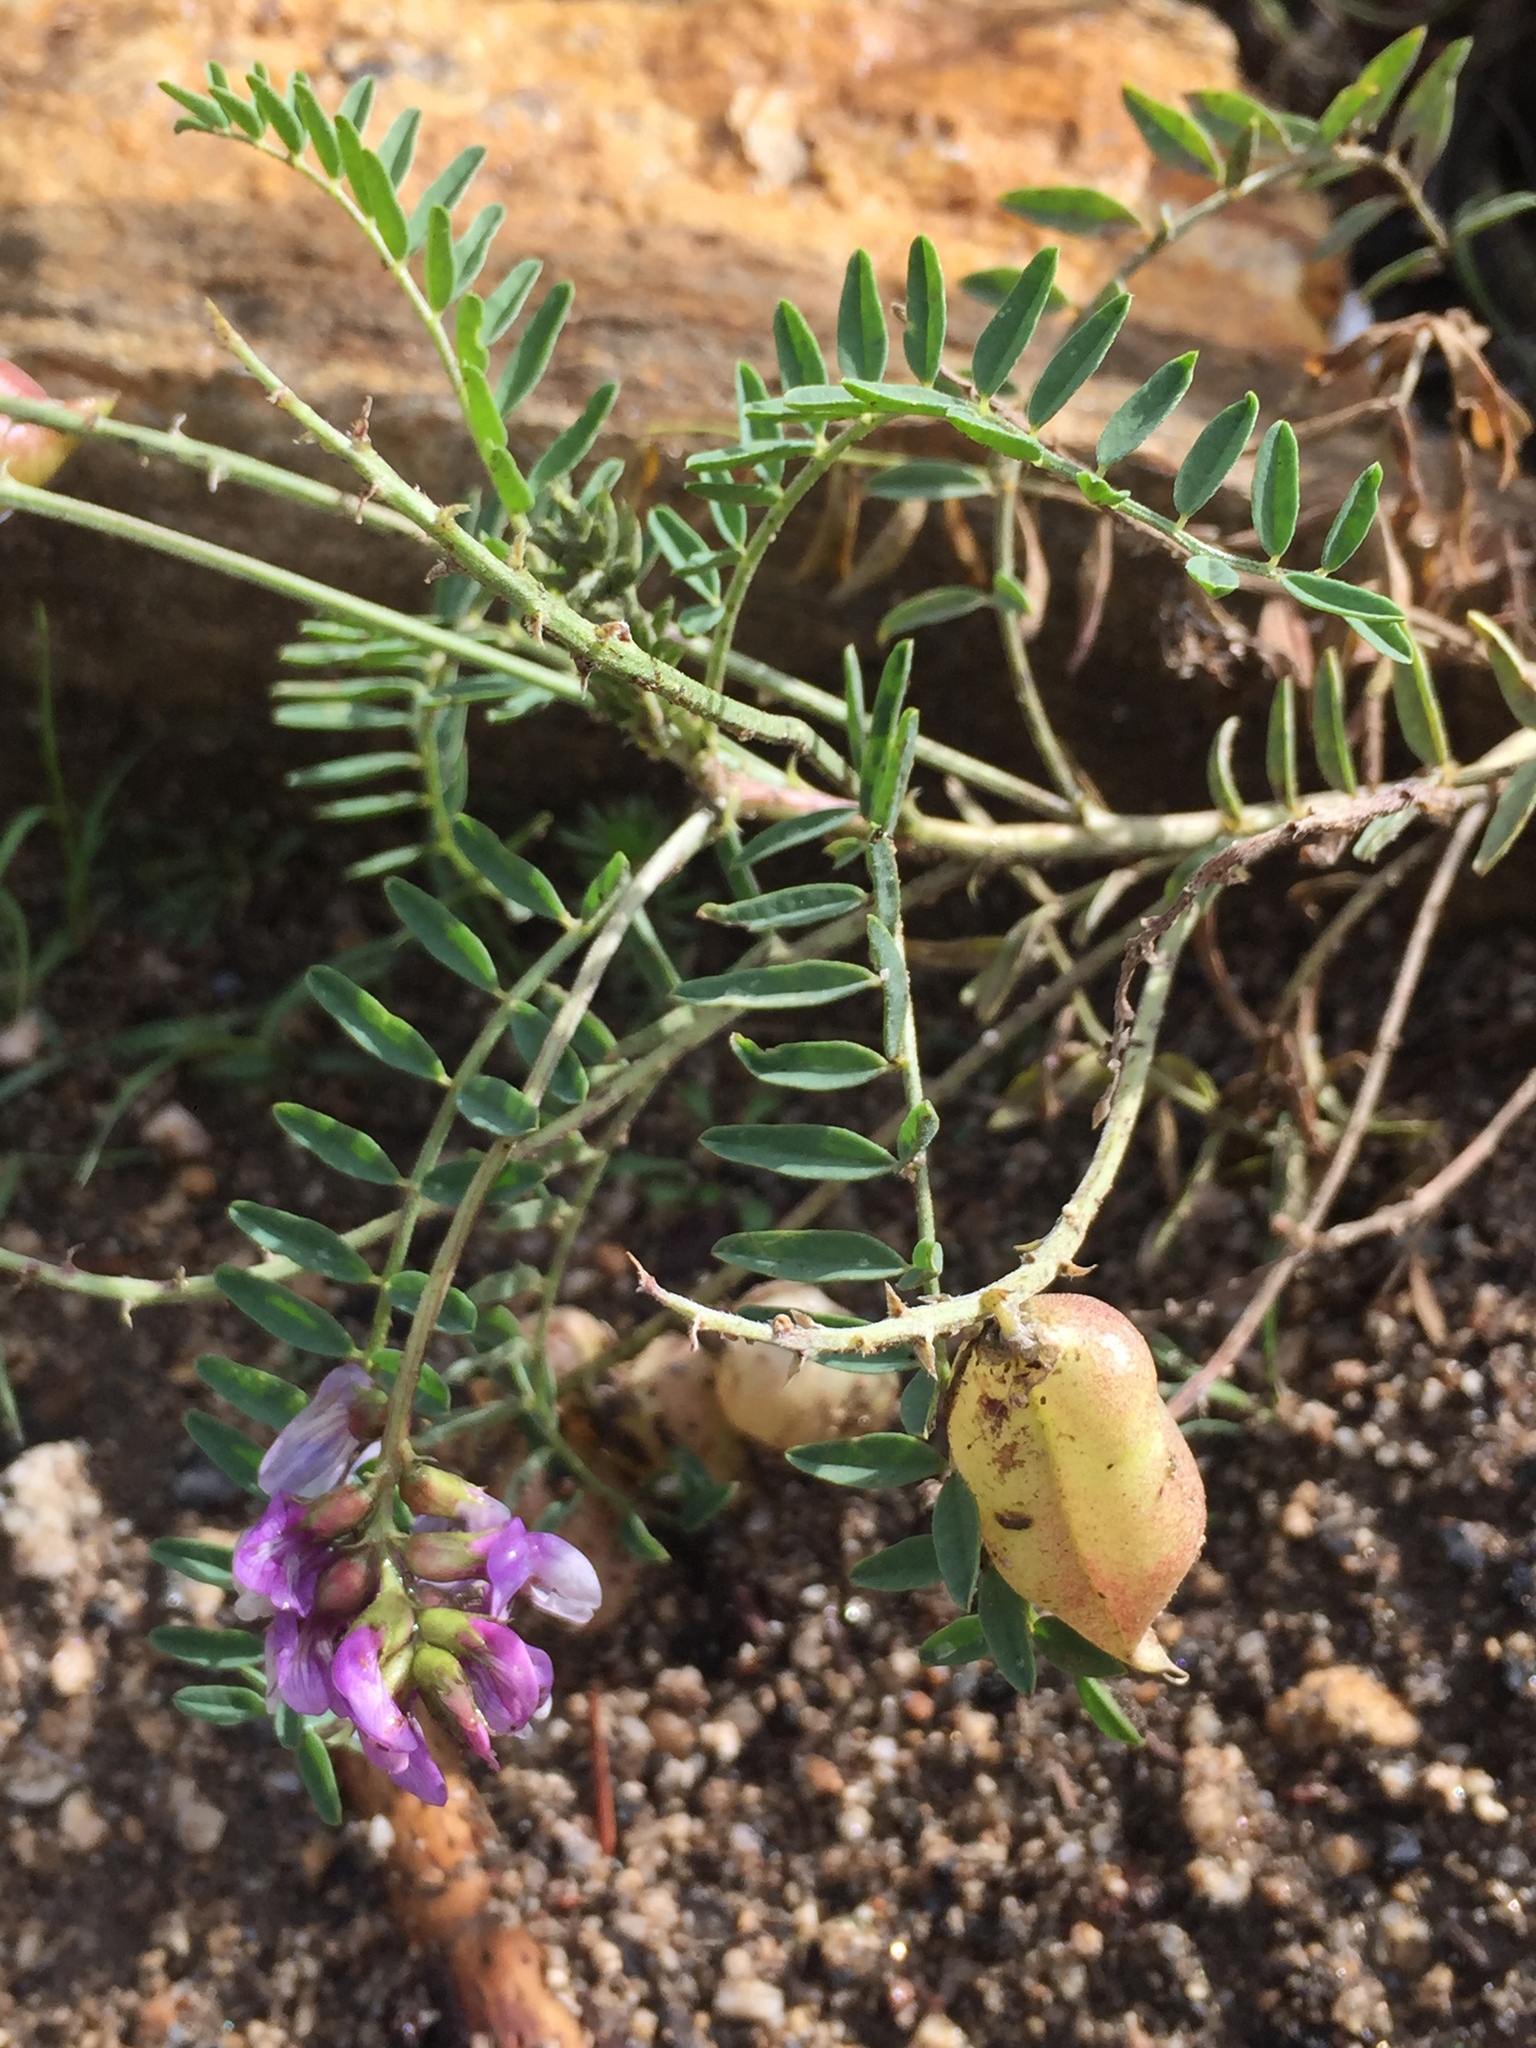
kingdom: Plantae
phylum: Tracheophyta
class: Magnoliopsida
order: Fabales
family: Fabaceae
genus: Astragalus
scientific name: Astragalus gruinus
